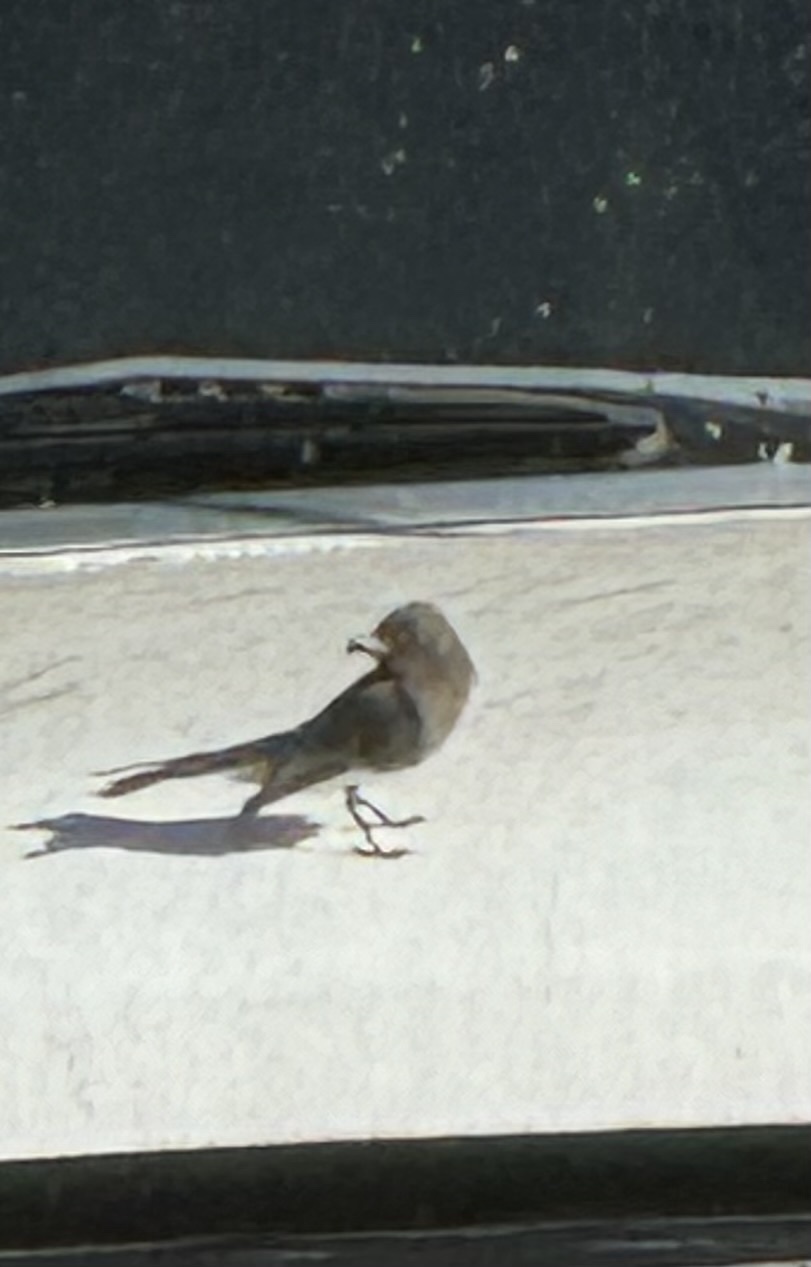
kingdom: Animalia
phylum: Chordata
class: Aves
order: Passeriformes
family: Passerellidae
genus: Junco
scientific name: Junco hyemalis
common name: Dark-eyed junco
